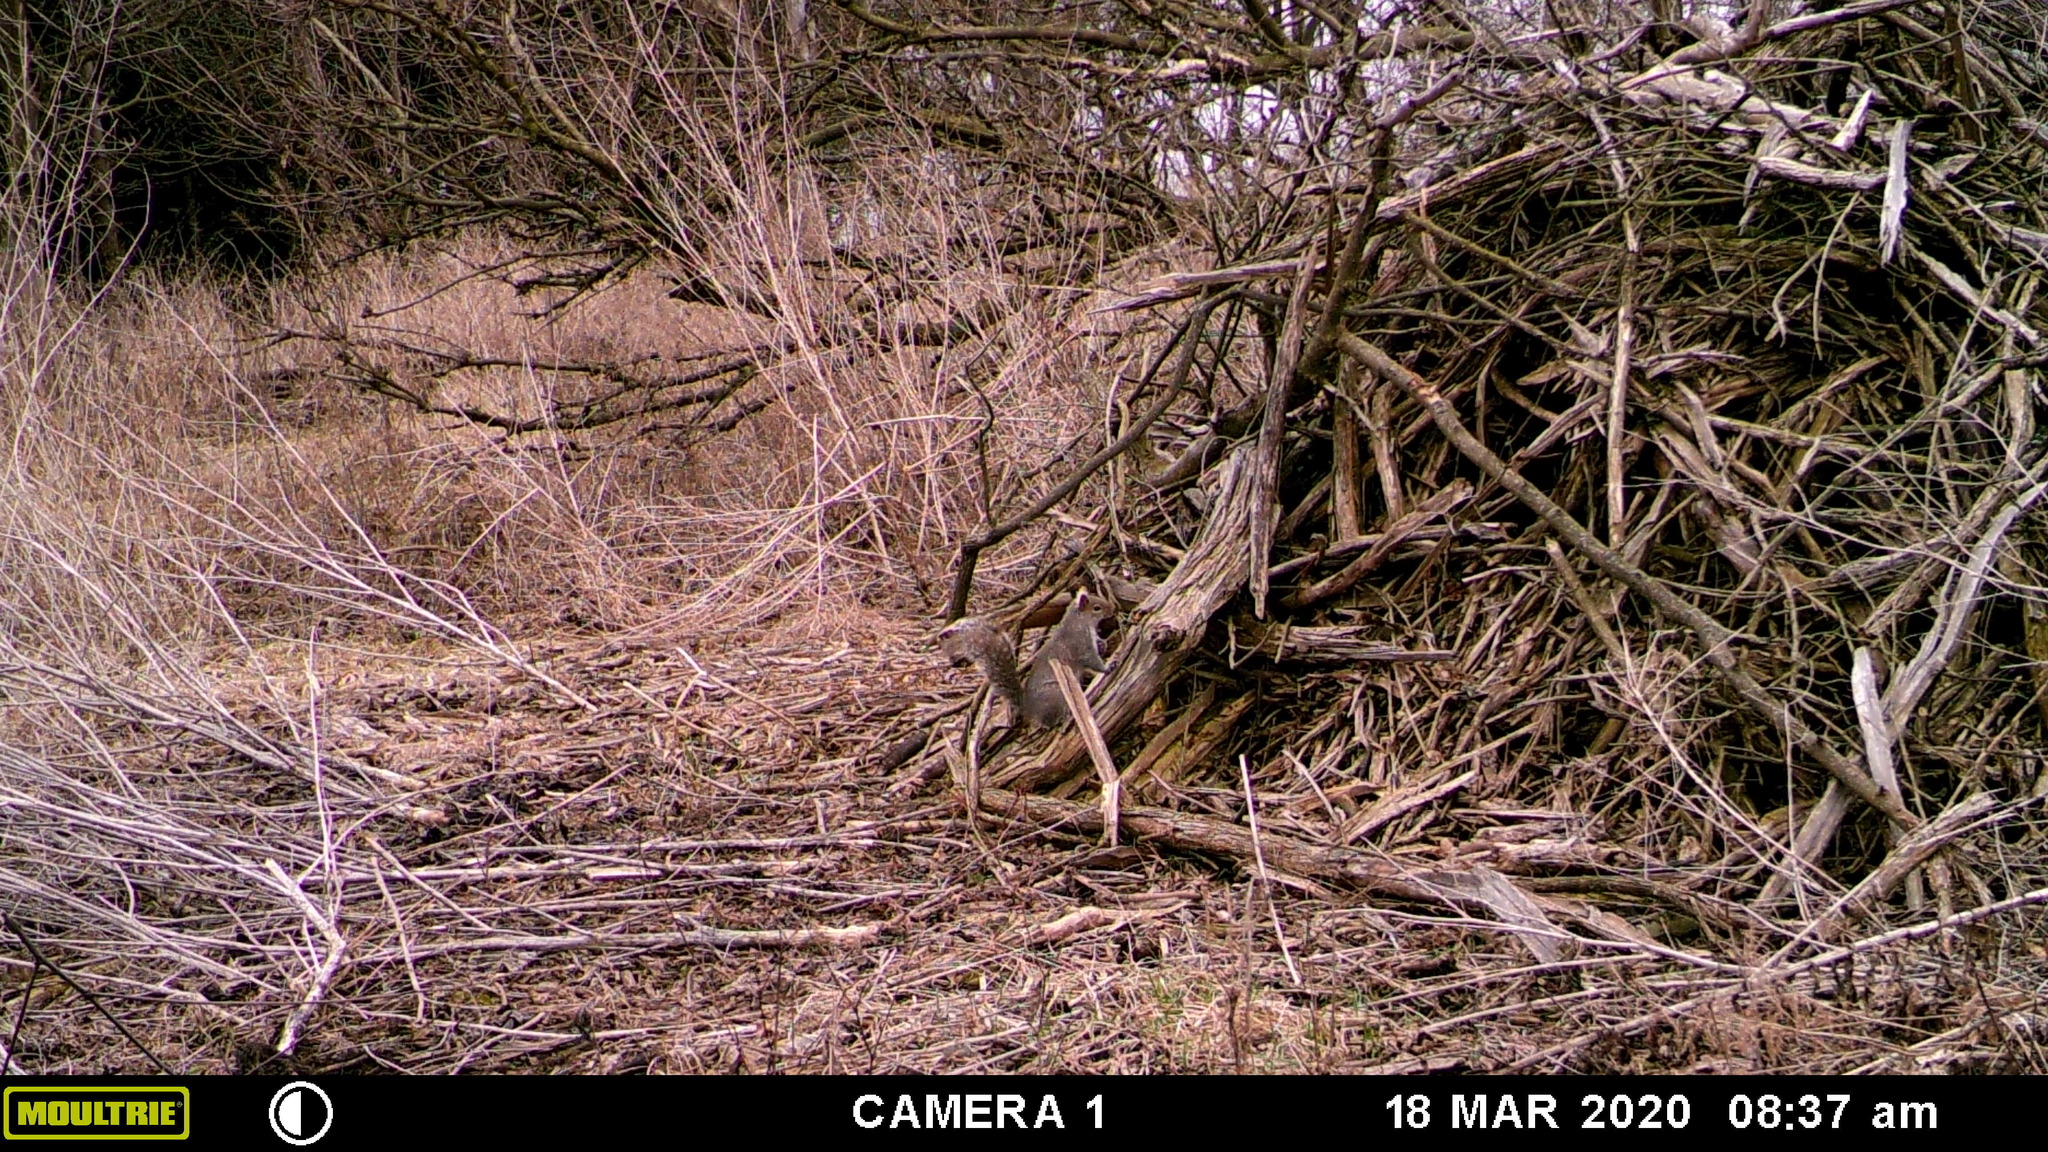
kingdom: Animalia
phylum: Chordata
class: Mammalia
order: Rodentia
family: Sciuridae
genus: Sciurus
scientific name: Sciurus carolinensis
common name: Eastern gray squirrel
